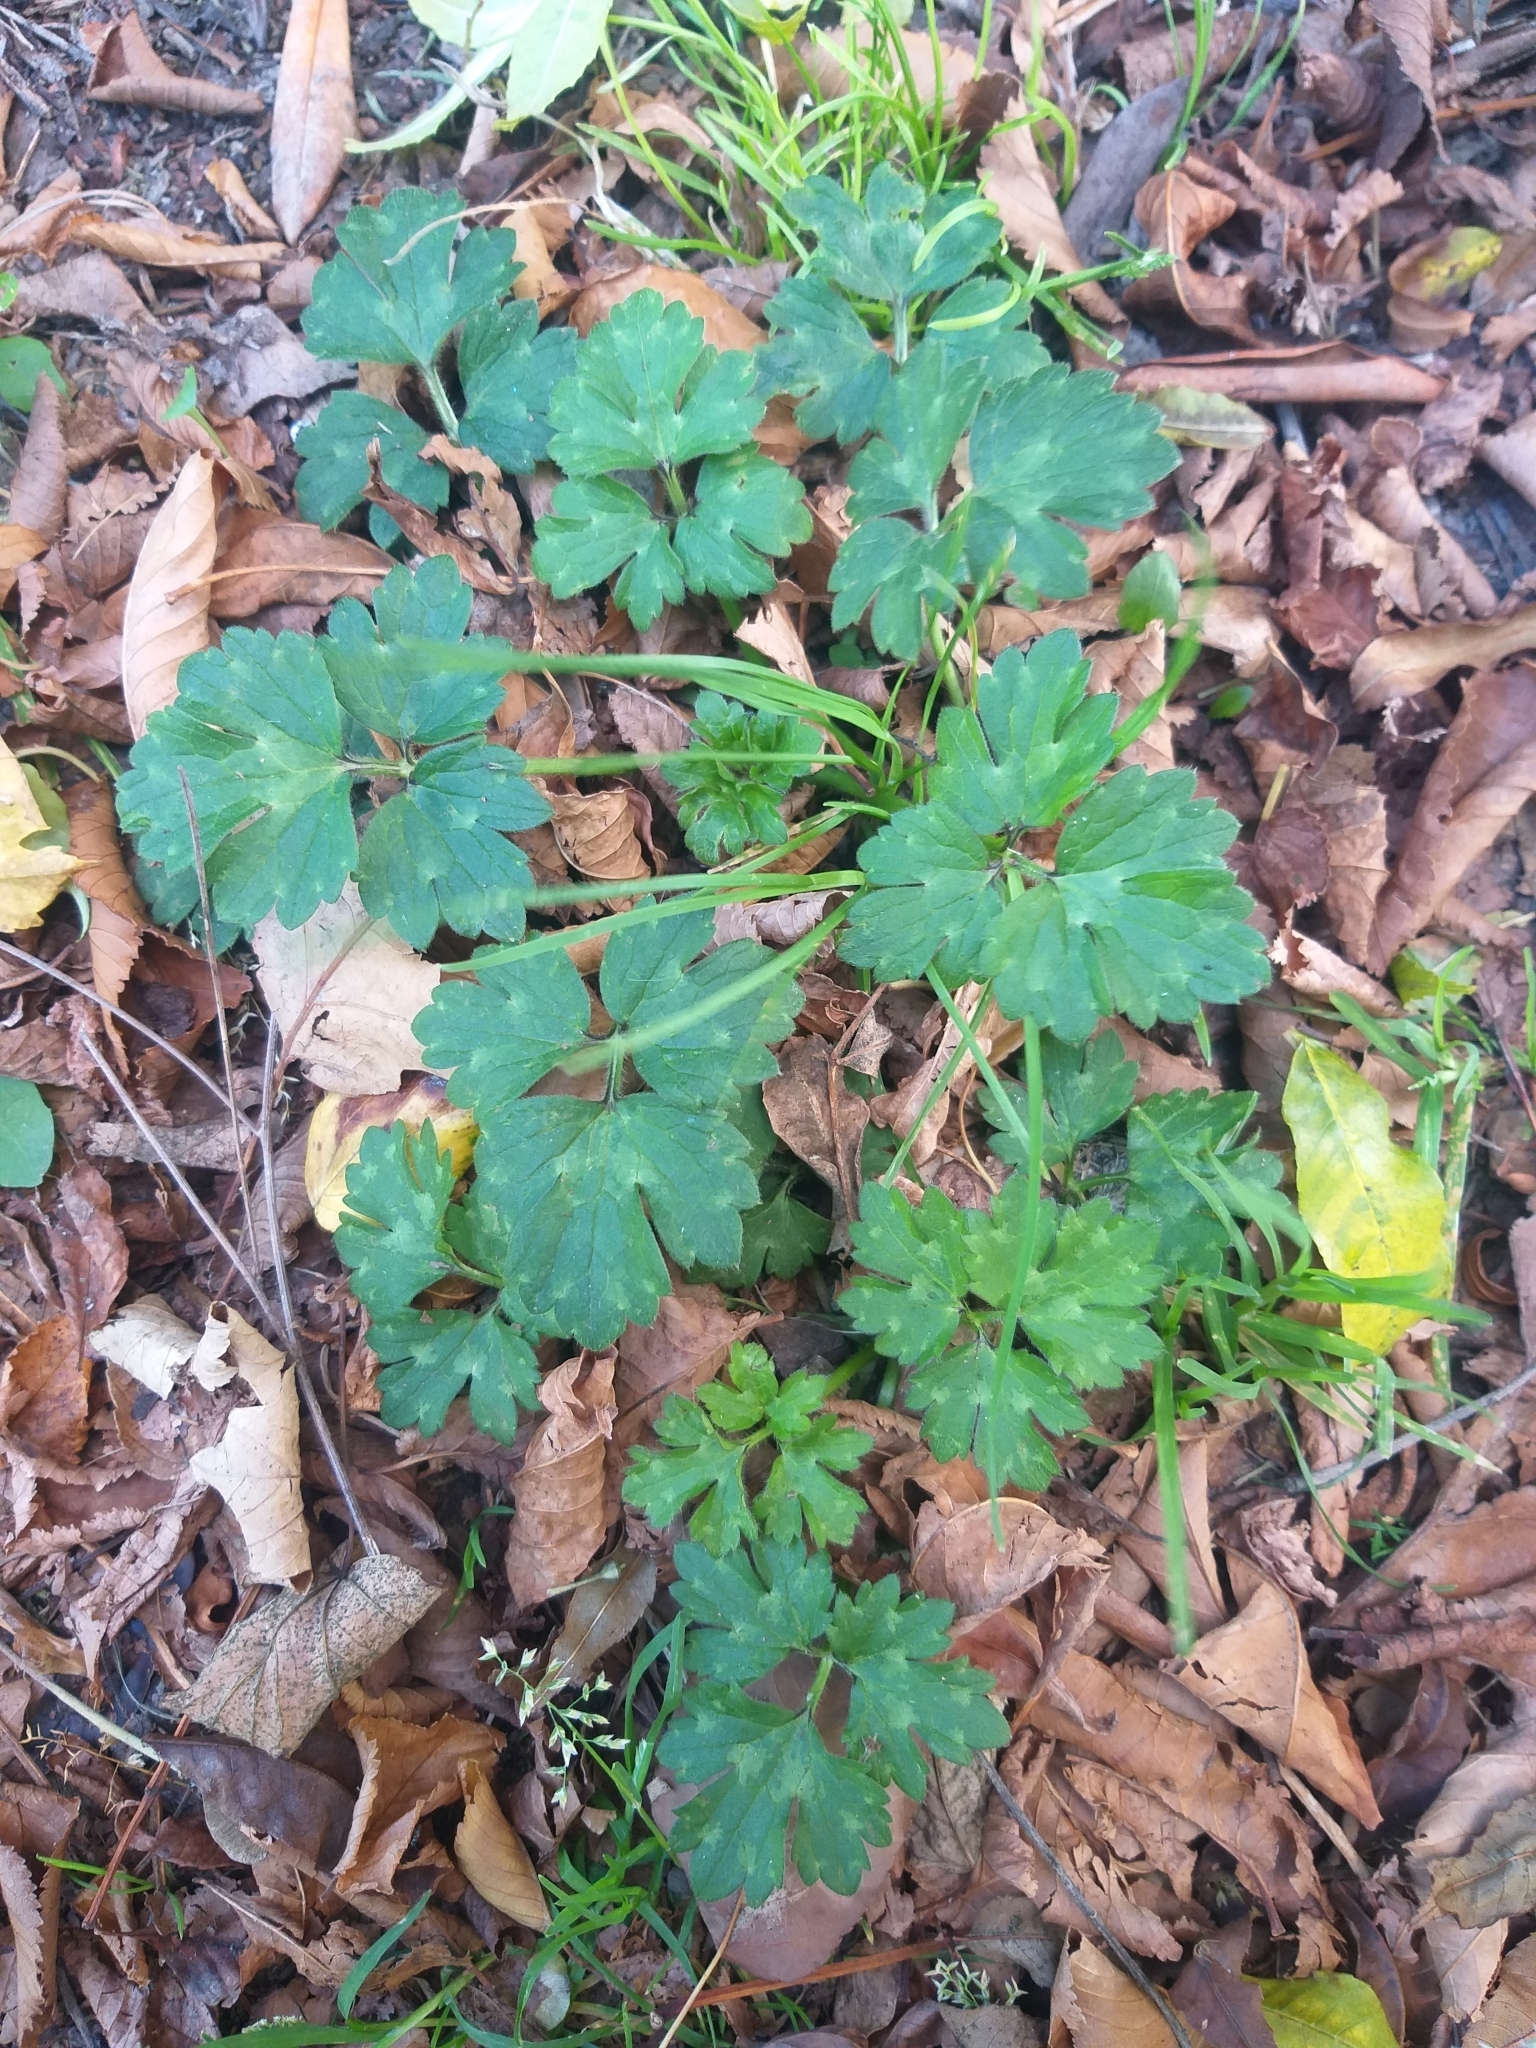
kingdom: Plantae
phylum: Tracheophyta
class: Magnoliopsida
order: Ranunculales
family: Ranunculaceae
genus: Ranunculus
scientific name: Ranunculus repens
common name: Creeping buttercup
